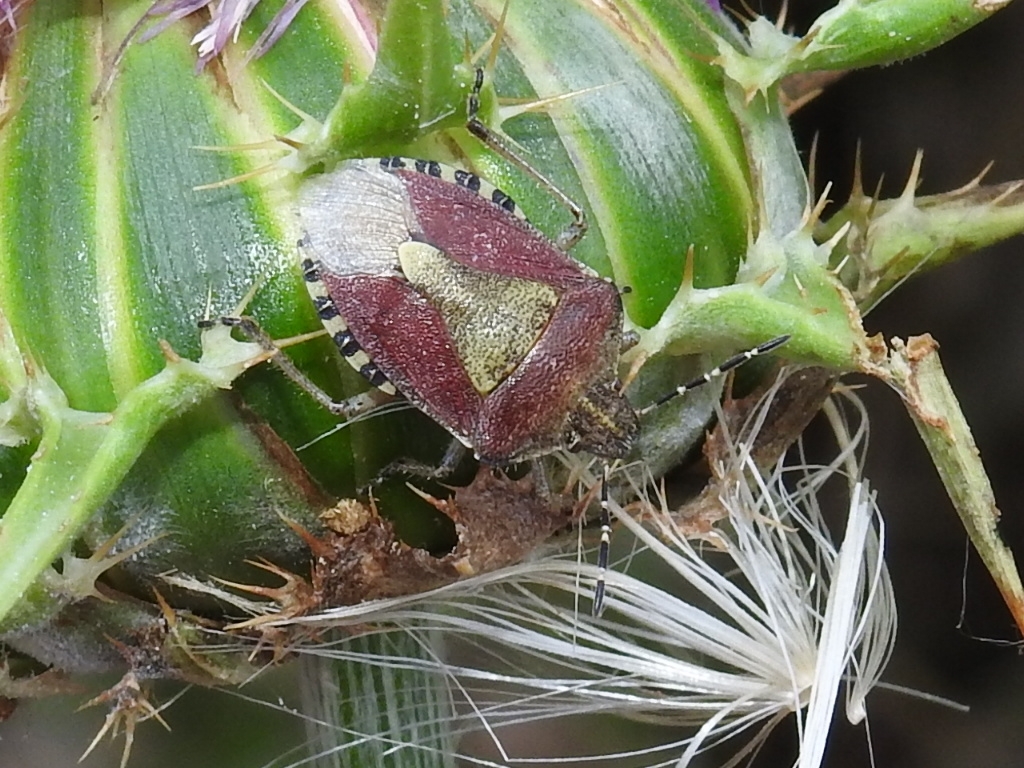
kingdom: Animalia
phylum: Arthropoda
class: Insecta
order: Hemiptera
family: Pentatomidae
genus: Dolycoris
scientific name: Dolycoris baccarum
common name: Sloe bug
